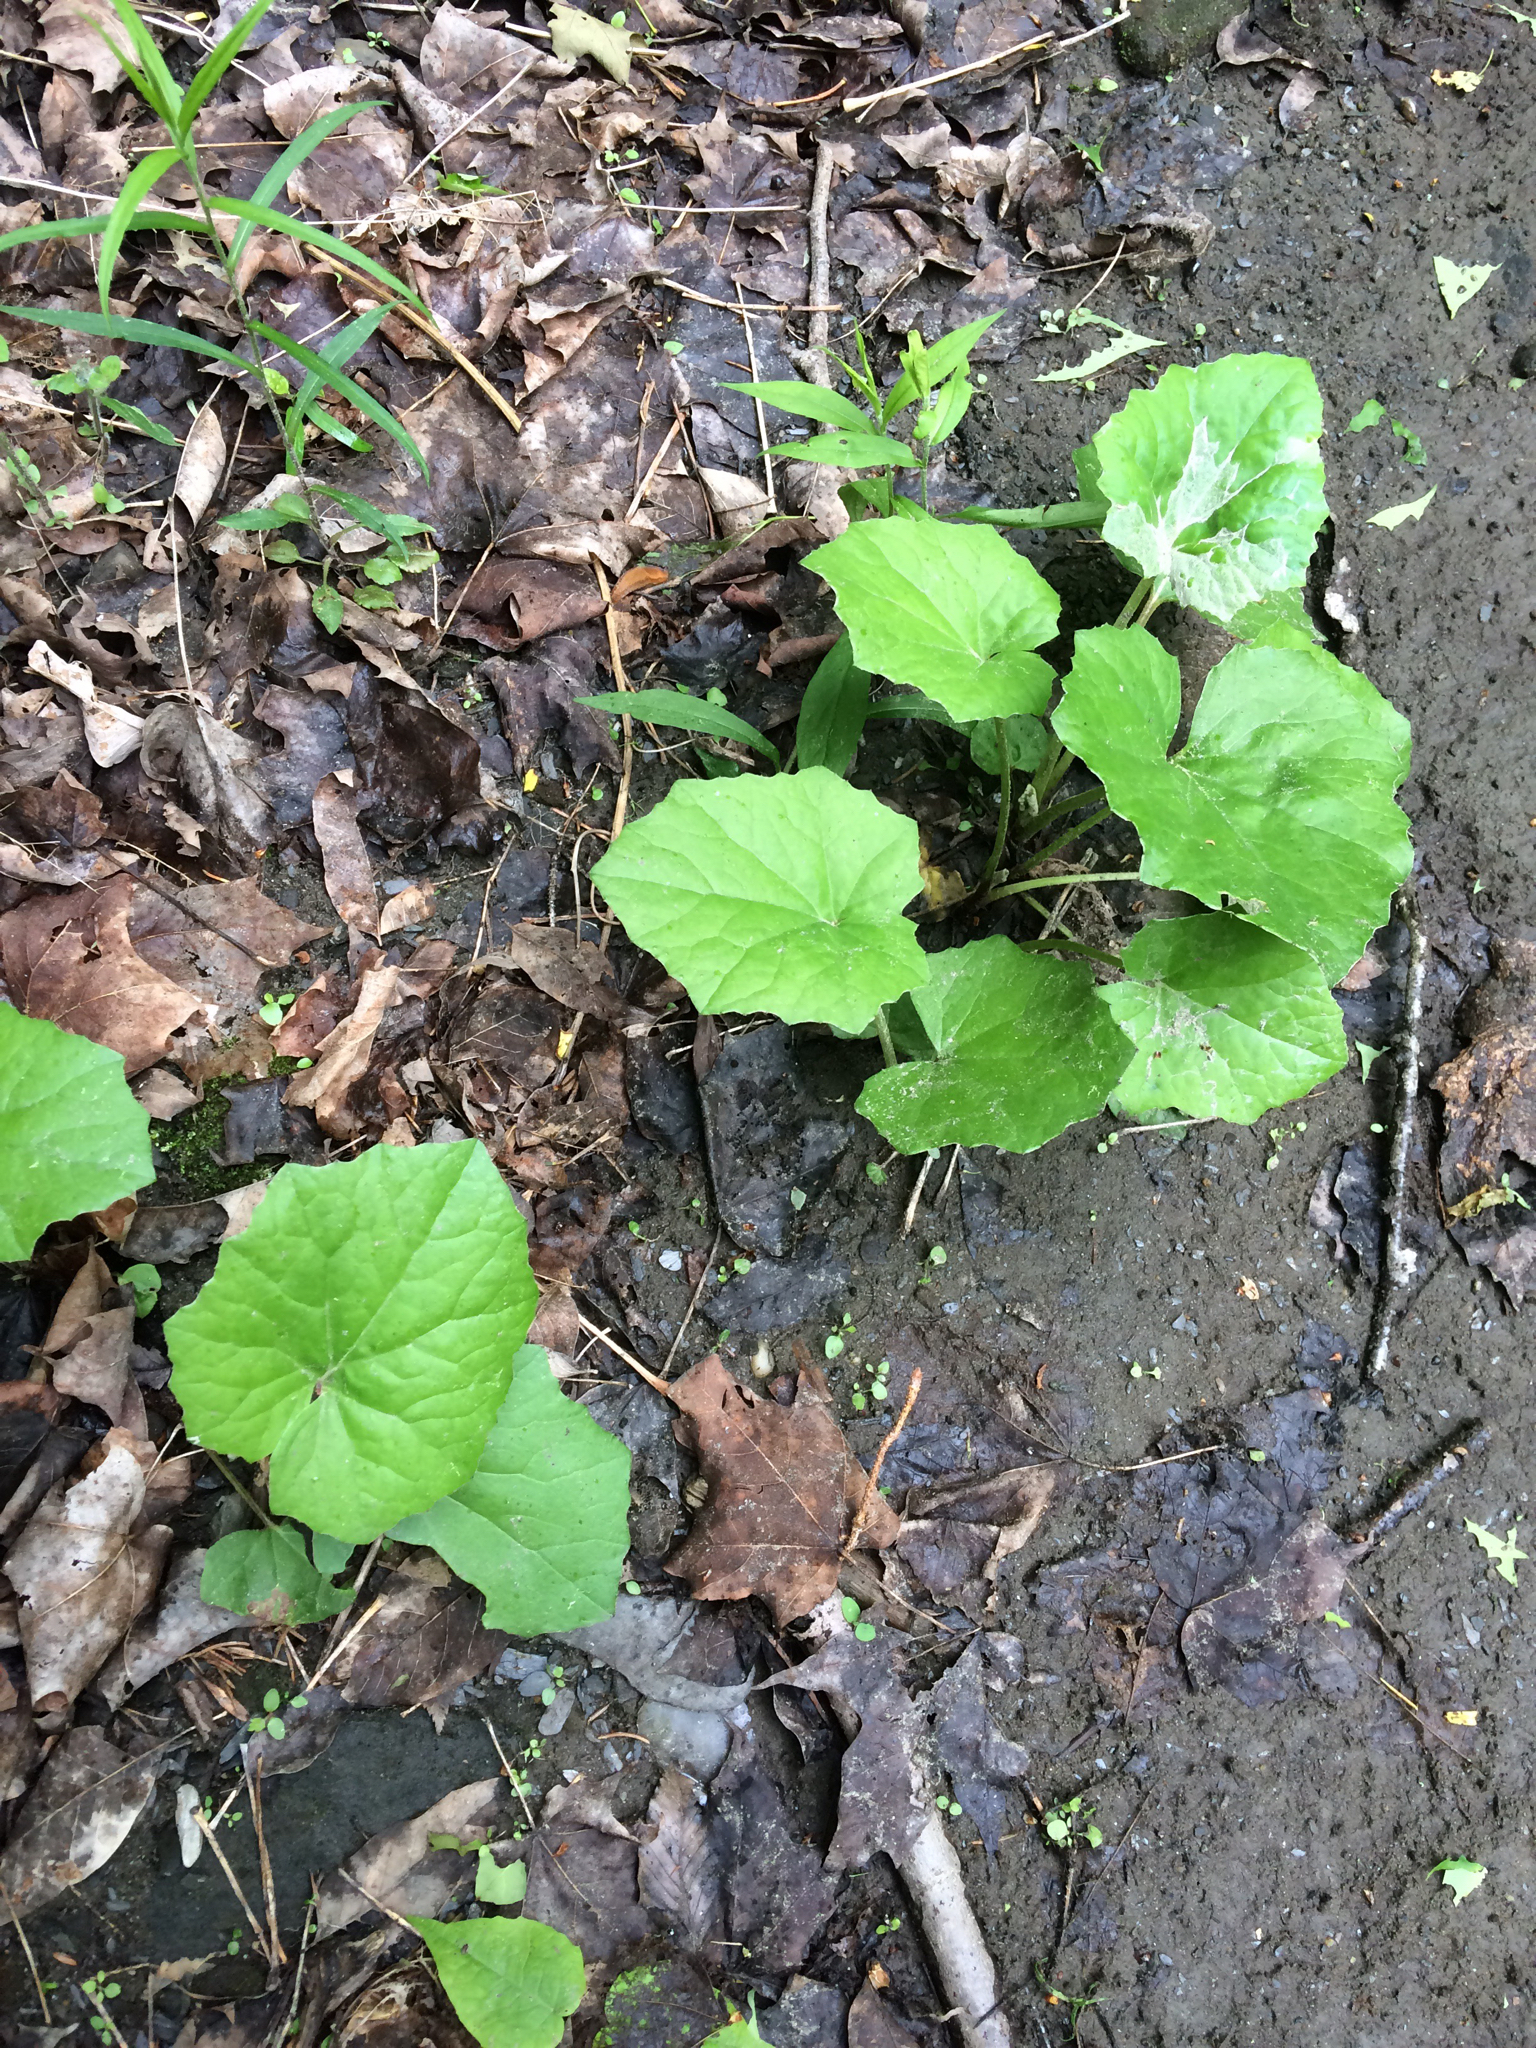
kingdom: Plantae
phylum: Tracheophyta
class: Magnoliopsida
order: Asterales
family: Asteraceae
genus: Tussilago
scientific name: Tussilago farfara
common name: Coltsfoot
